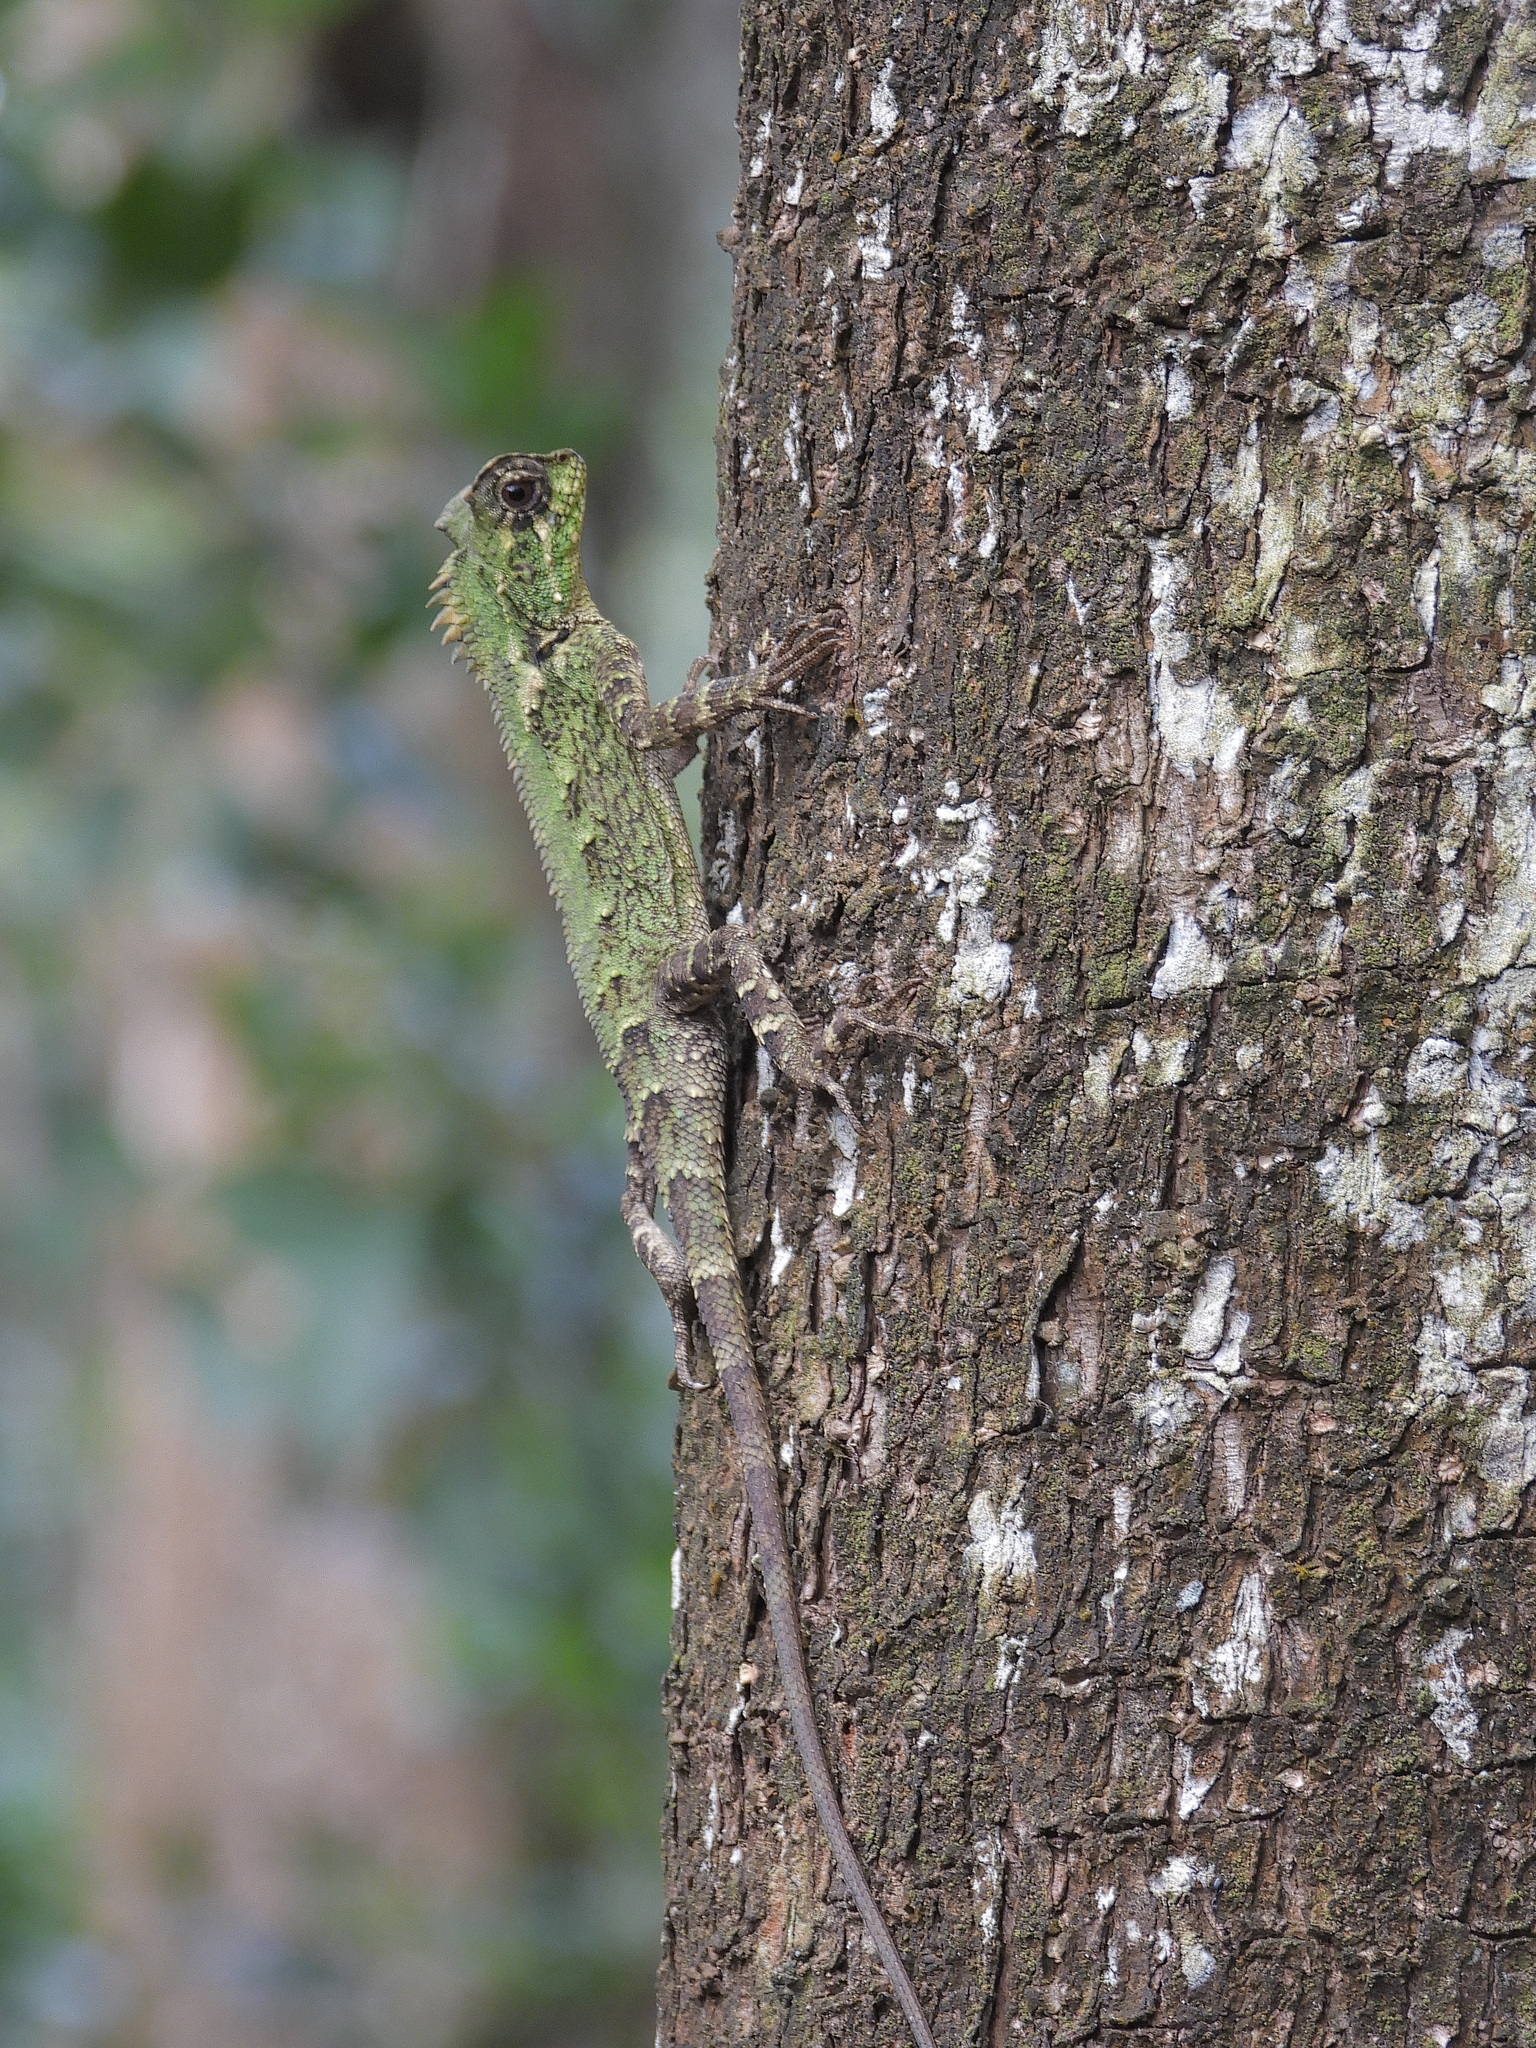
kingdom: Animalia
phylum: Chordata
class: Squamata
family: Agamidae
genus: Gonocephalus
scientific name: Gonocephalus kuhlii
